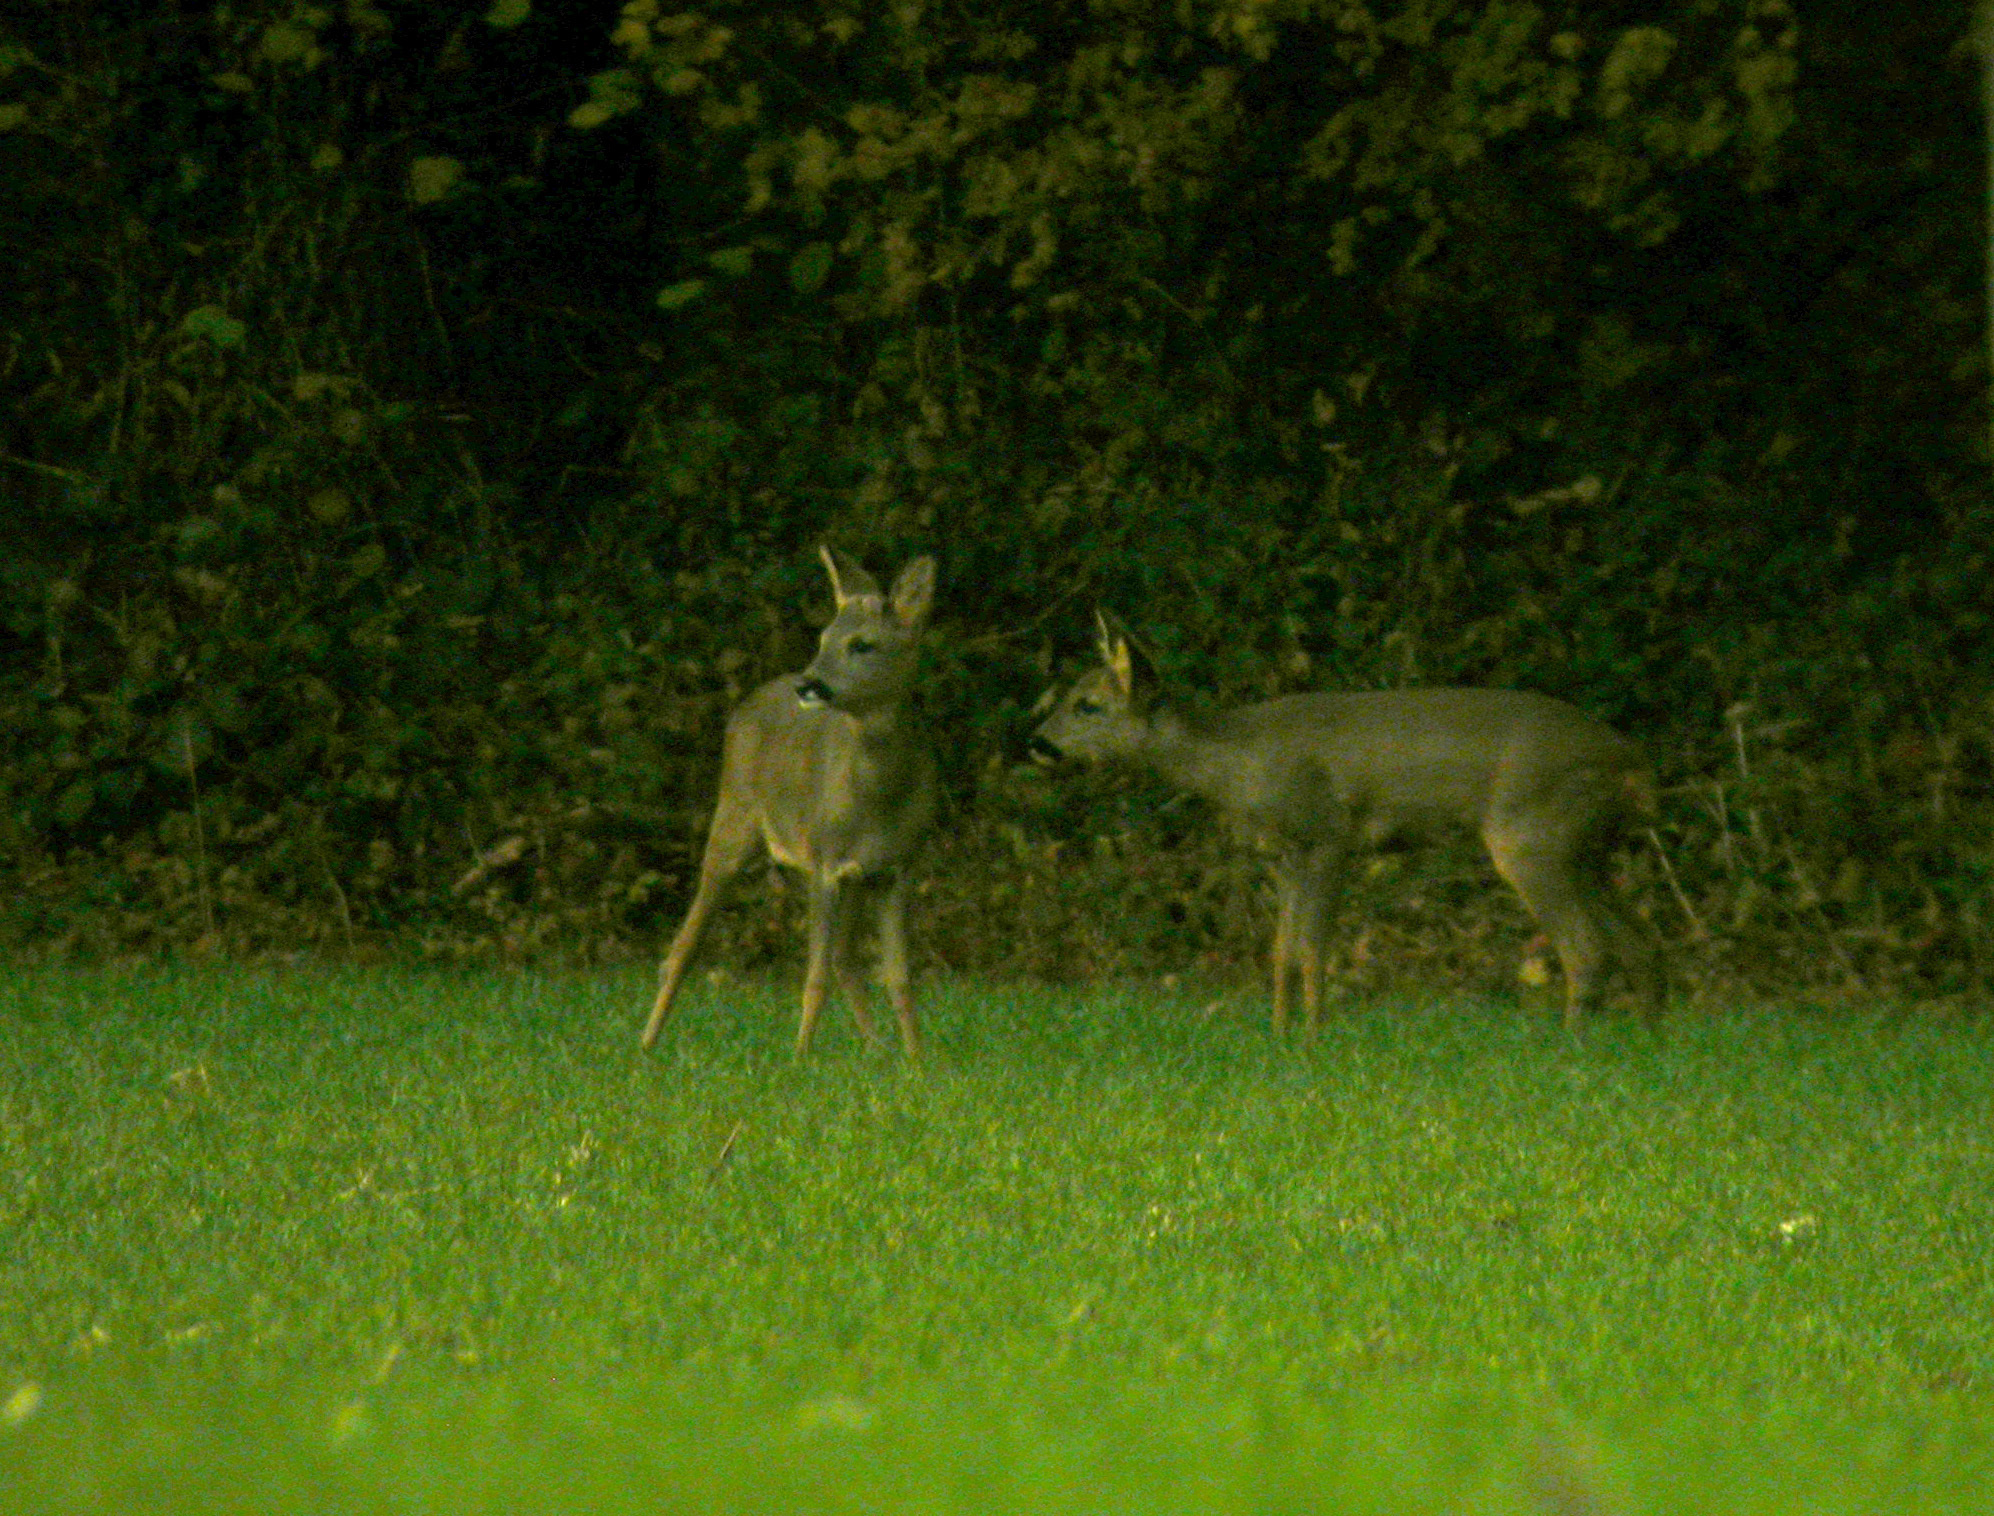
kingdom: Animalia
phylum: Chordata
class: Mammalia
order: Artiodactyla
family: Cervidae
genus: Capreolus
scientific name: Capreolus capreolus
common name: Western roe deer
